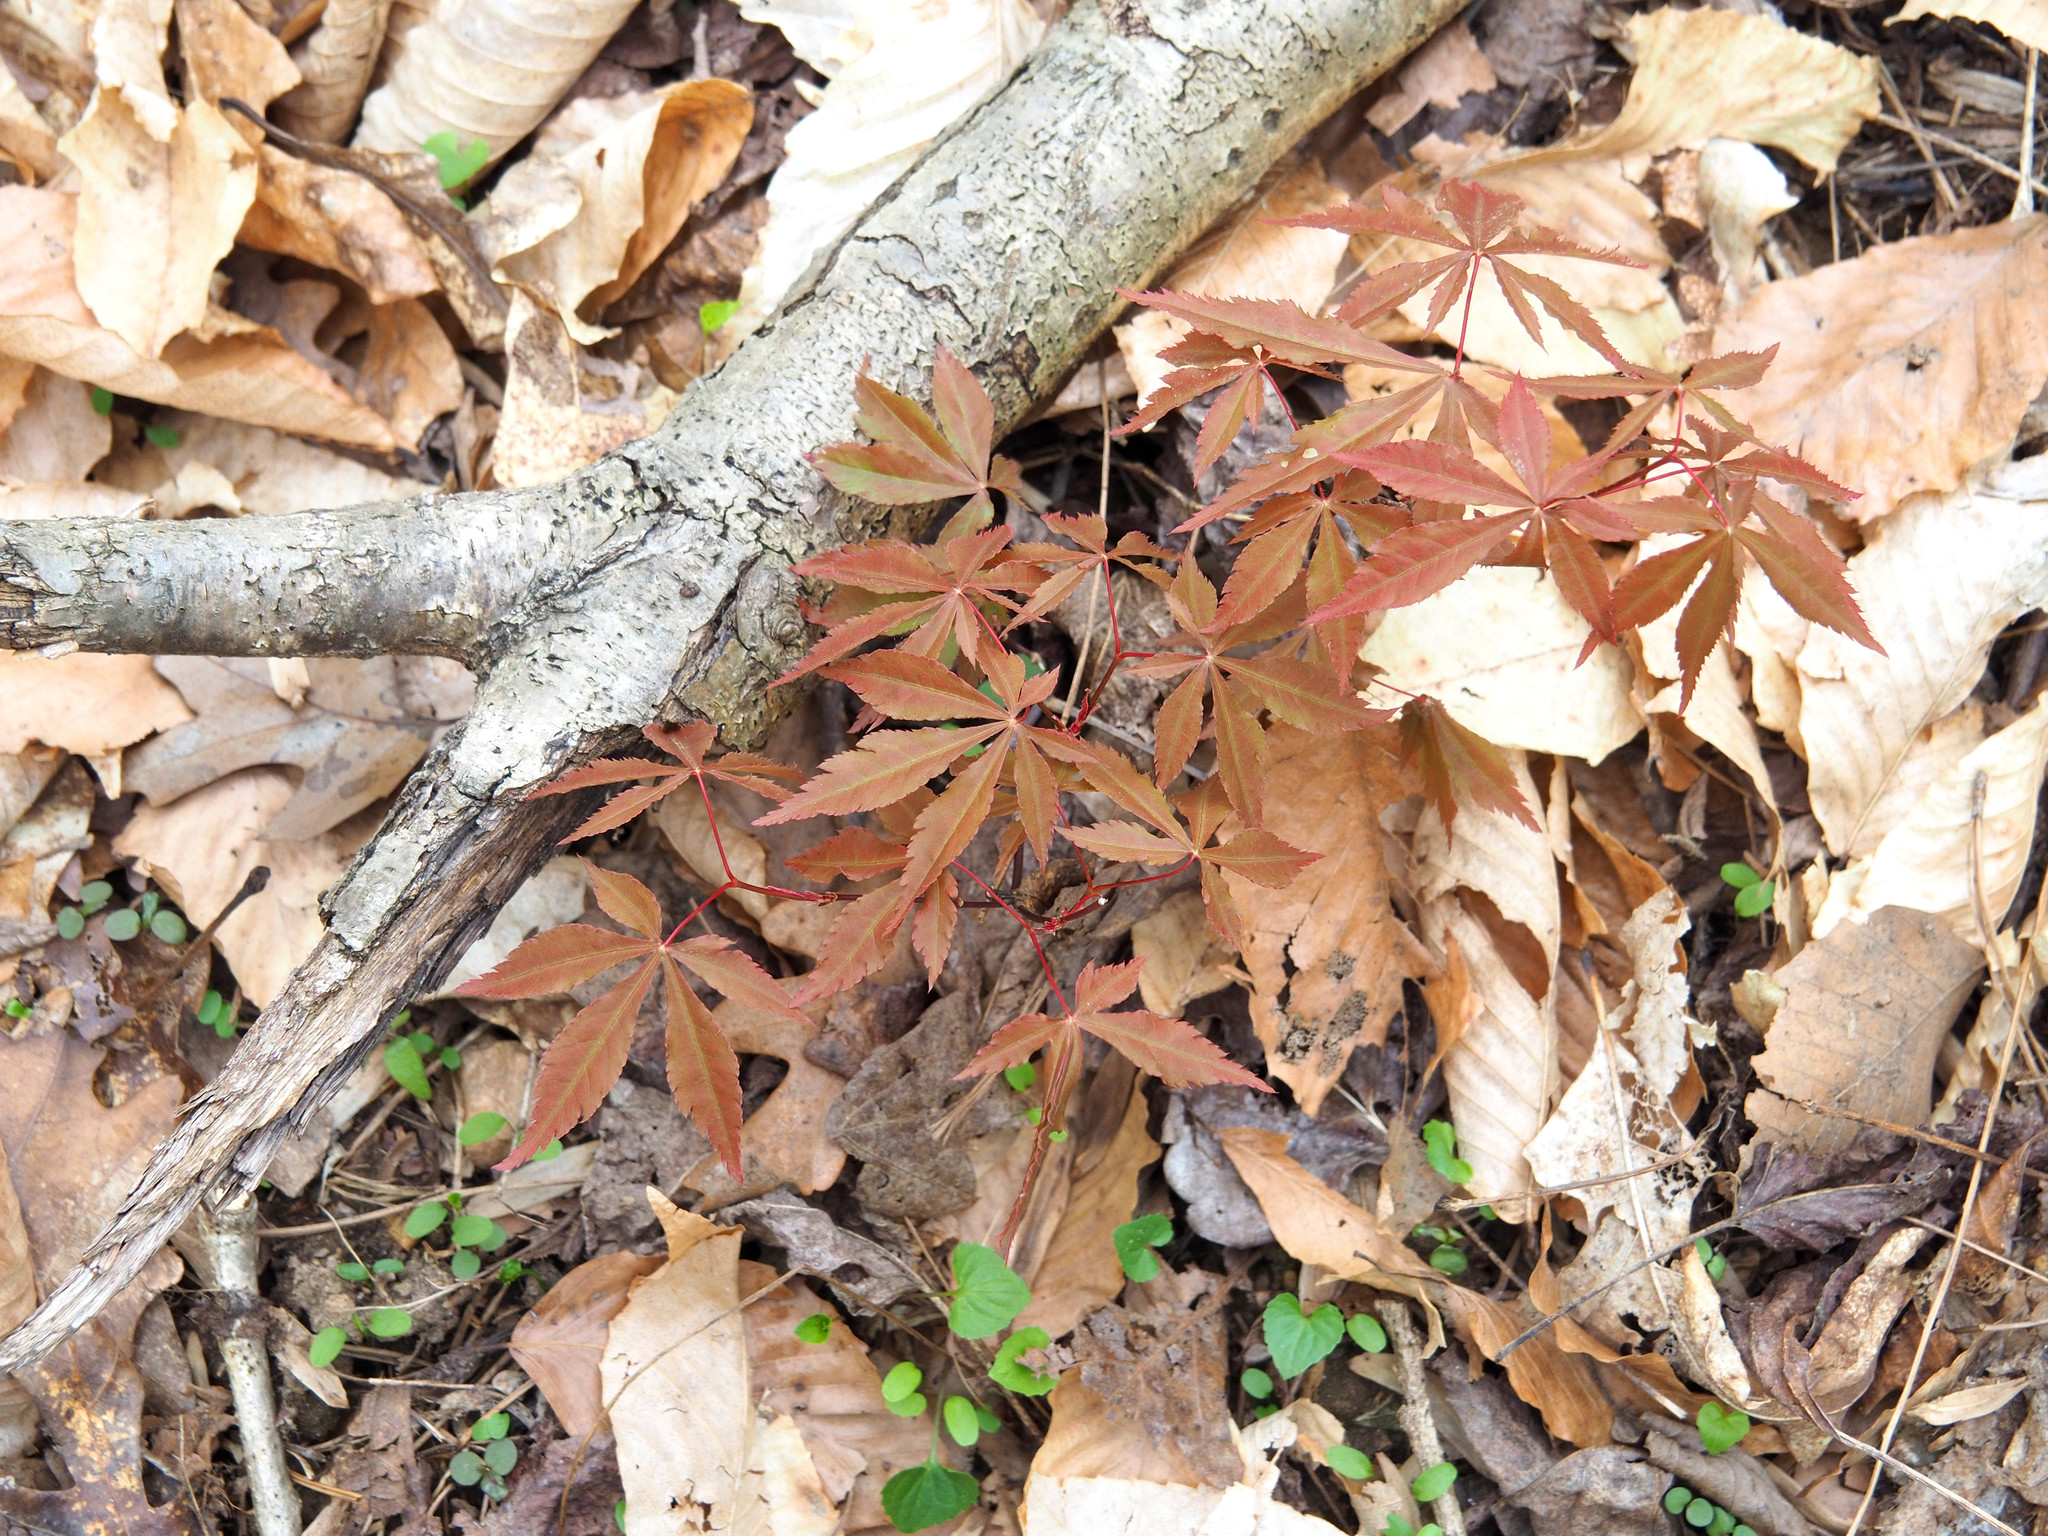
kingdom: Plantae
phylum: Tracheophyta
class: Magnoliopsida
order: Sapindales
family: Sapindaceae
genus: Acer
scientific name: Acer palmatum
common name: Japanese maple
